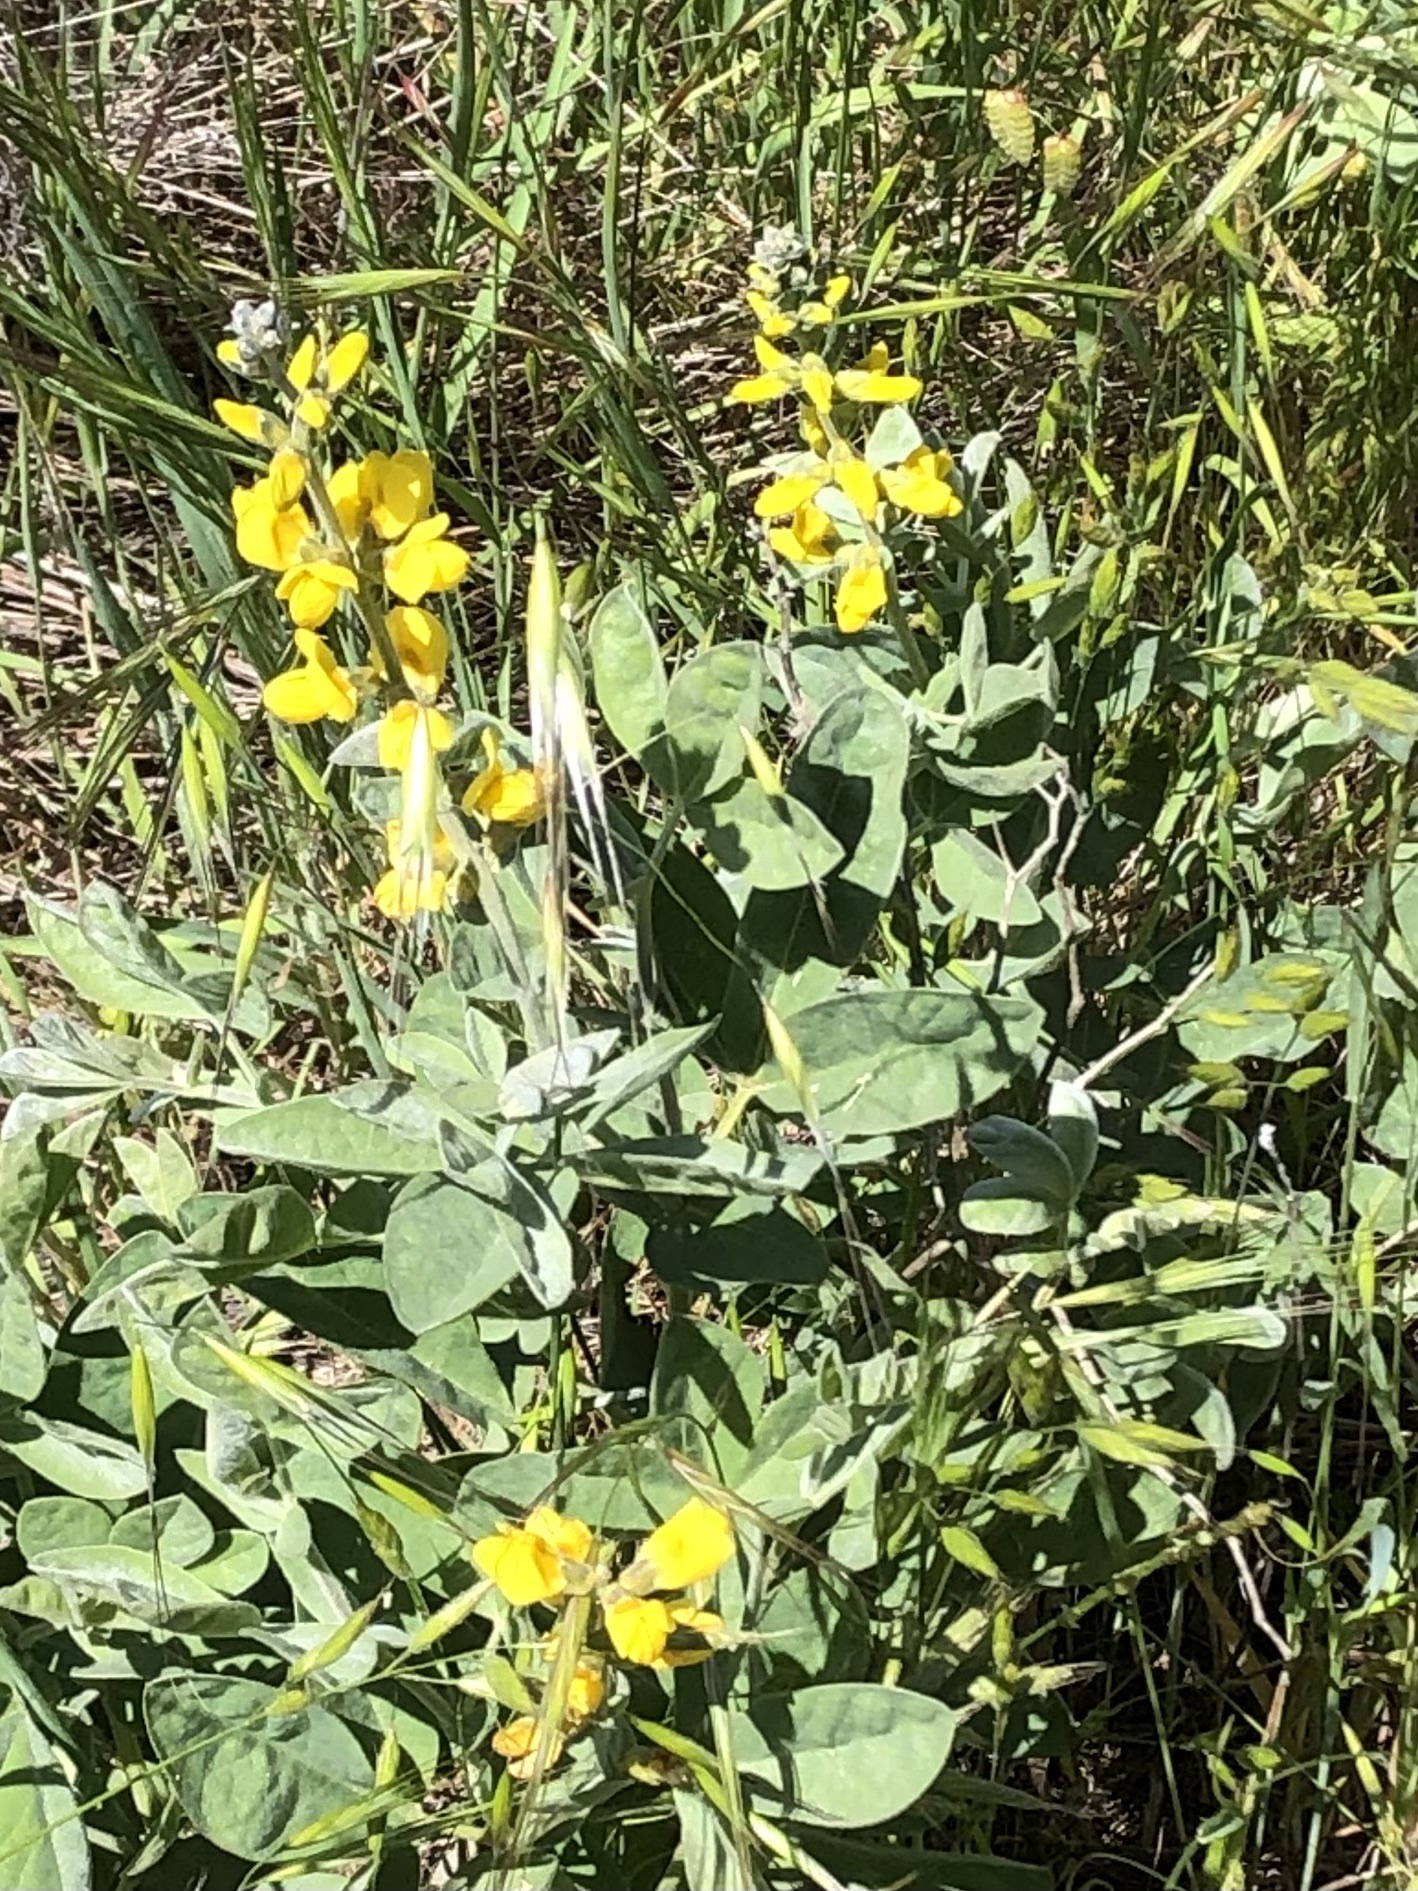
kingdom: Plantae
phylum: Tracheophyta
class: Magnoliopsida
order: Fabales
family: Fabaceae
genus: Thermopsis
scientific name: Thermopsis californica
